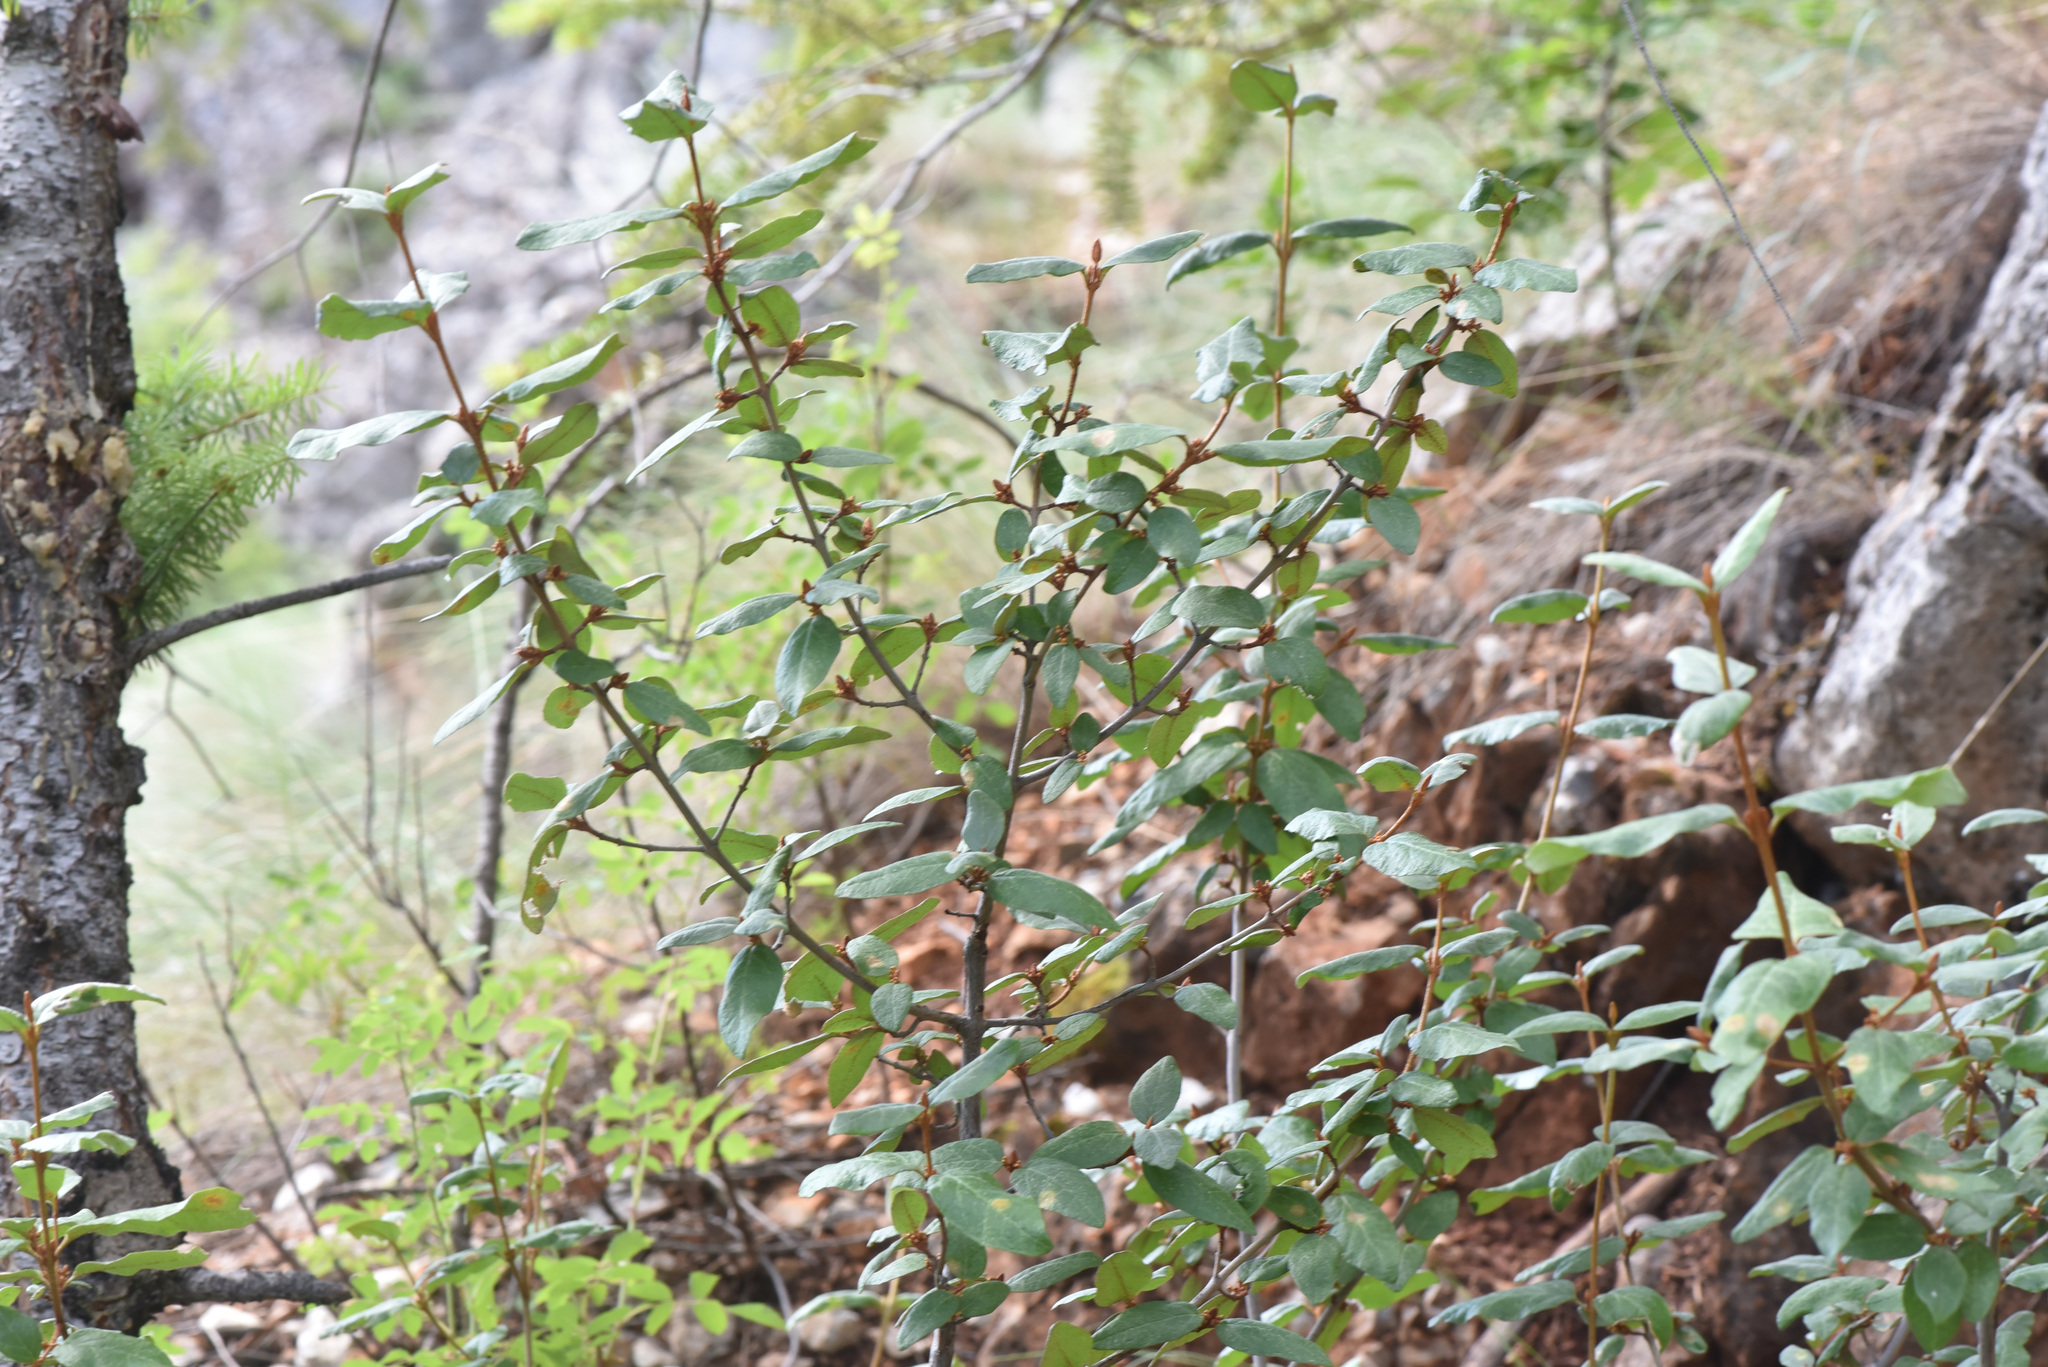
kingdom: Plantae
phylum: Tracheophyta
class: Magnoliopsida
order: Rosales
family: Elaeagnaceae
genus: Shepherdia
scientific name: Shepherdia canadensis
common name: Soapberry
